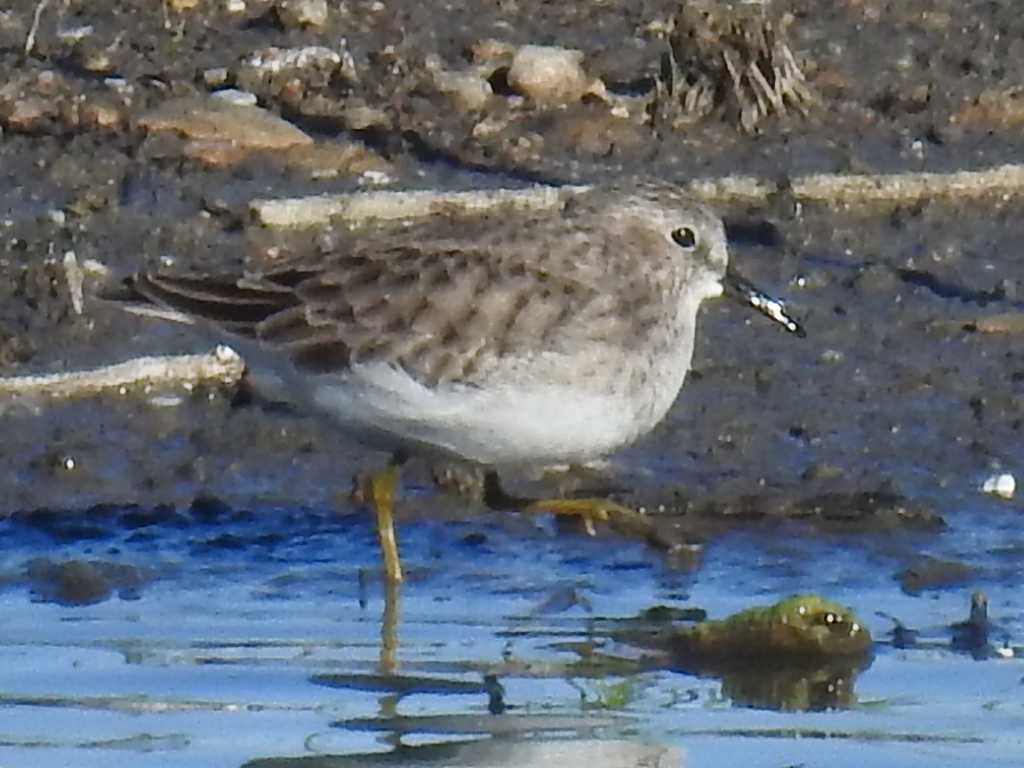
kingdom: Animalia
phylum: Chordata
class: Aves
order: Charadriiformes
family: Scolopacidae
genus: Calidris
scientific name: Calidris minutilla
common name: Least sandpiper
